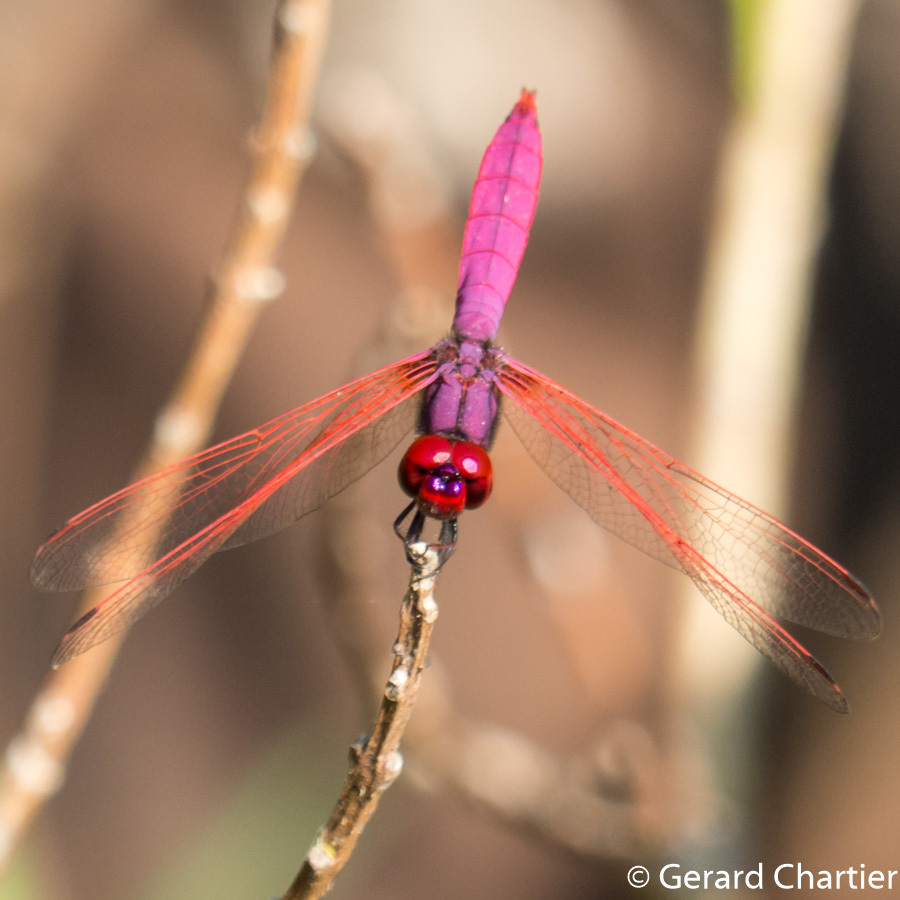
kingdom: Animalia
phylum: Arthropoda
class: Insecta
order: Odonata
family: Libellulidae
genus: Trithemis
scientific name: Trithemis aurora
